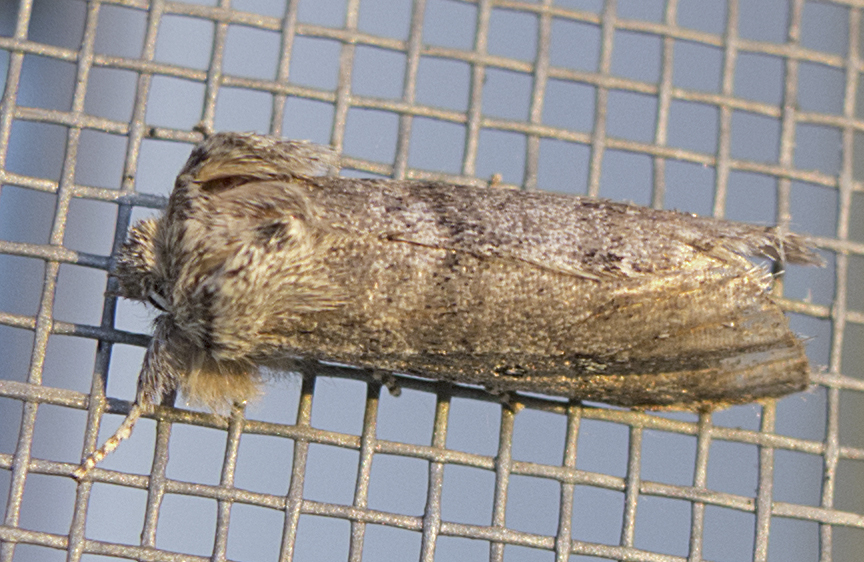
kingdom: Animalia
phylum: Arthropoda
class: Insecta
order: Lepidoptera
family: Drepanidae
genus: Polyploca
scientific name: Polyploca ruficollis
